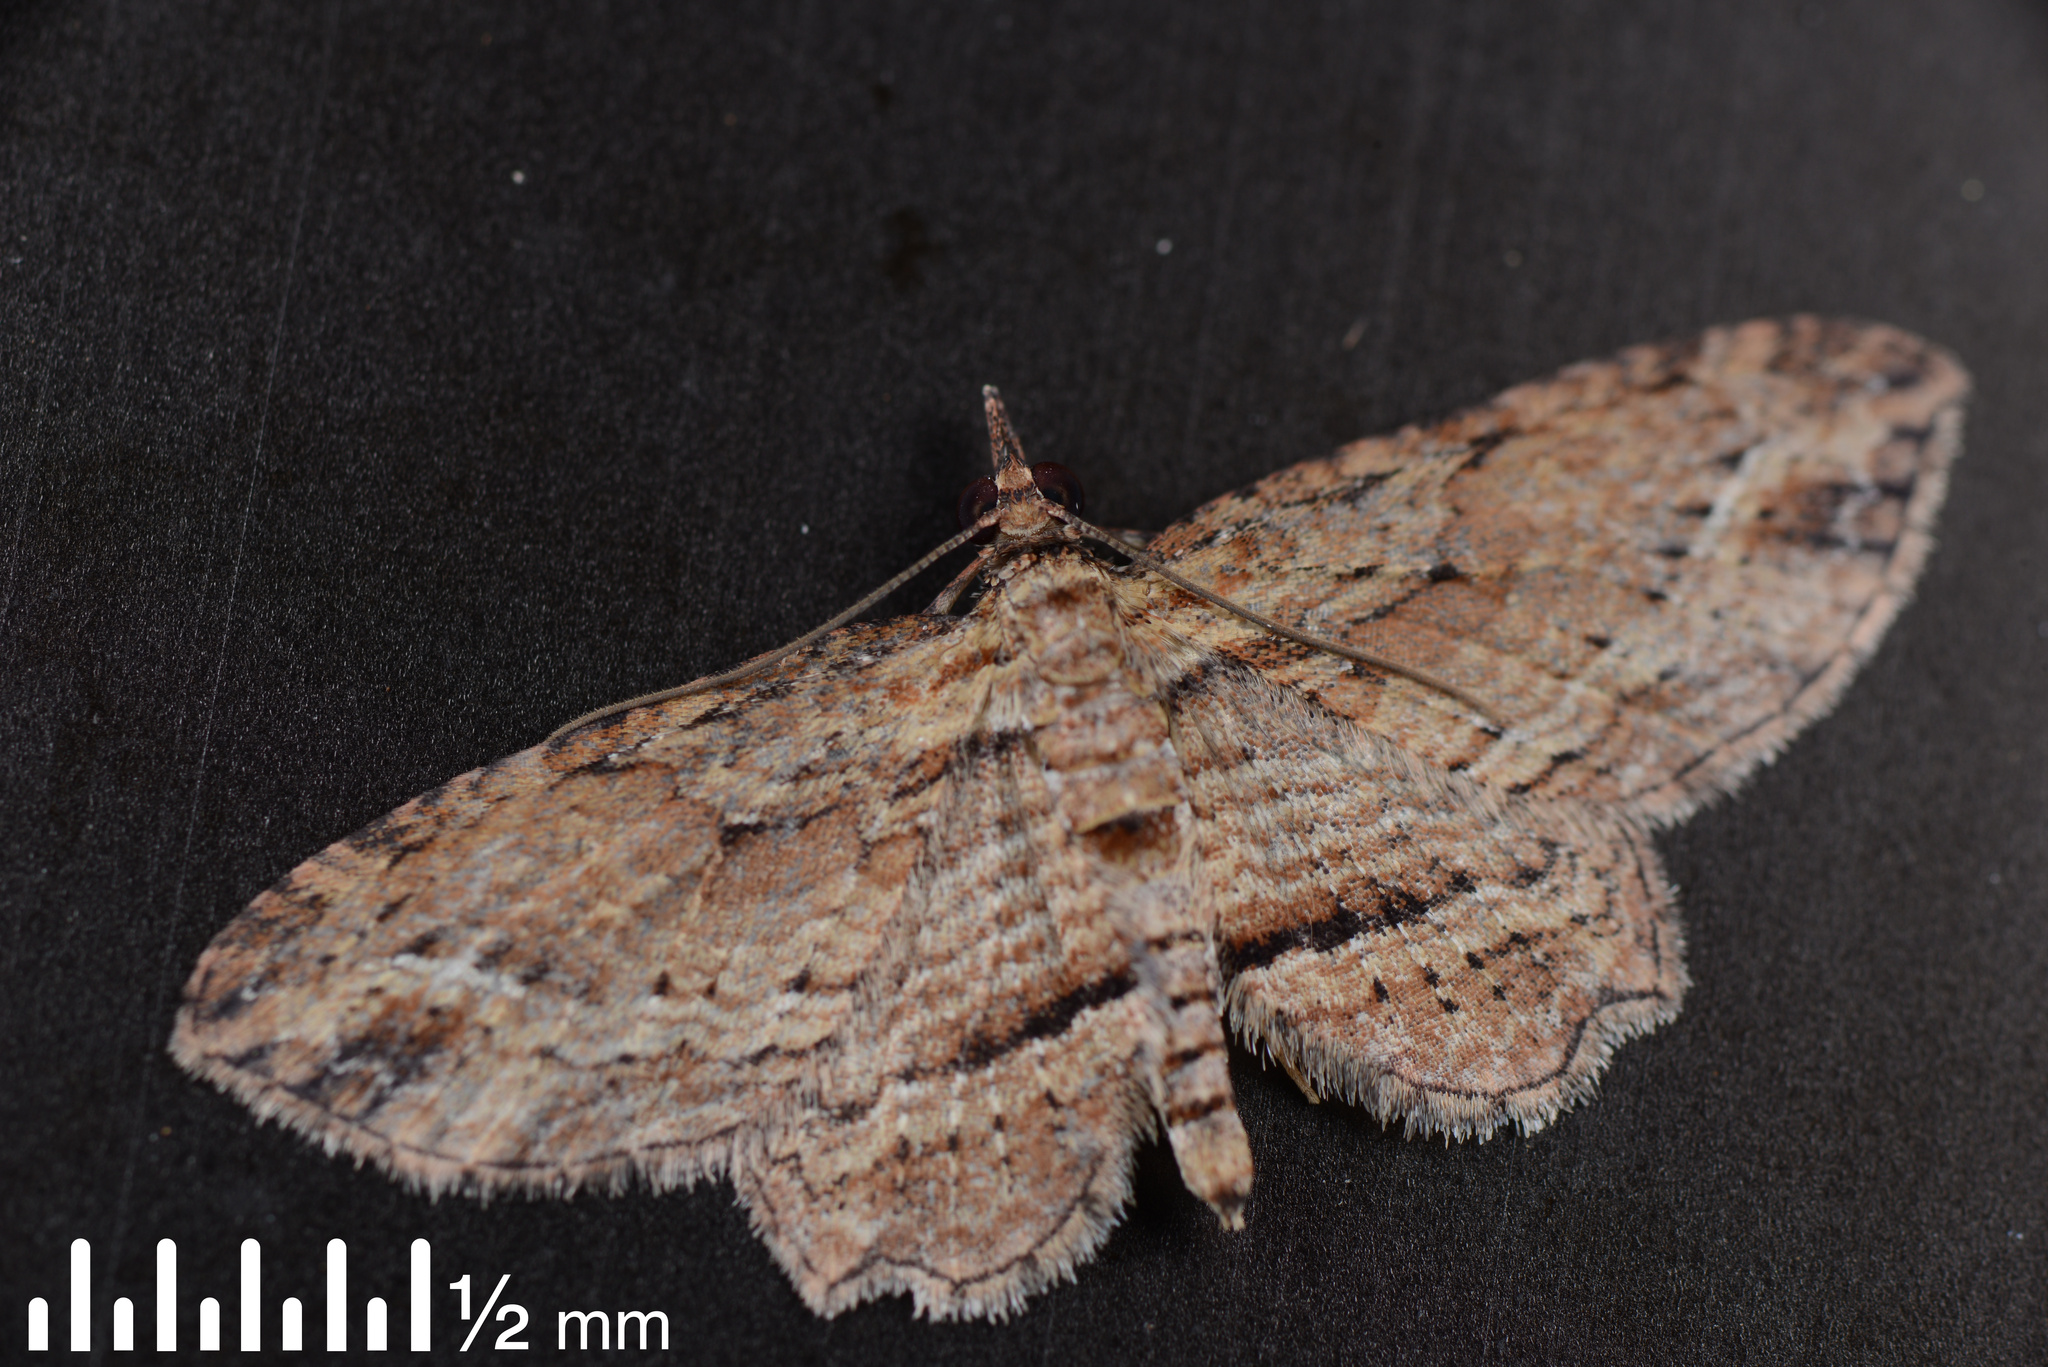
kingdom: Animalia
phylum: Arthropoda
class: Insecta
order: Lepidoptera
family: Geometridae
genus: Chloroclystis
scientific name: Chloroclystis filata
